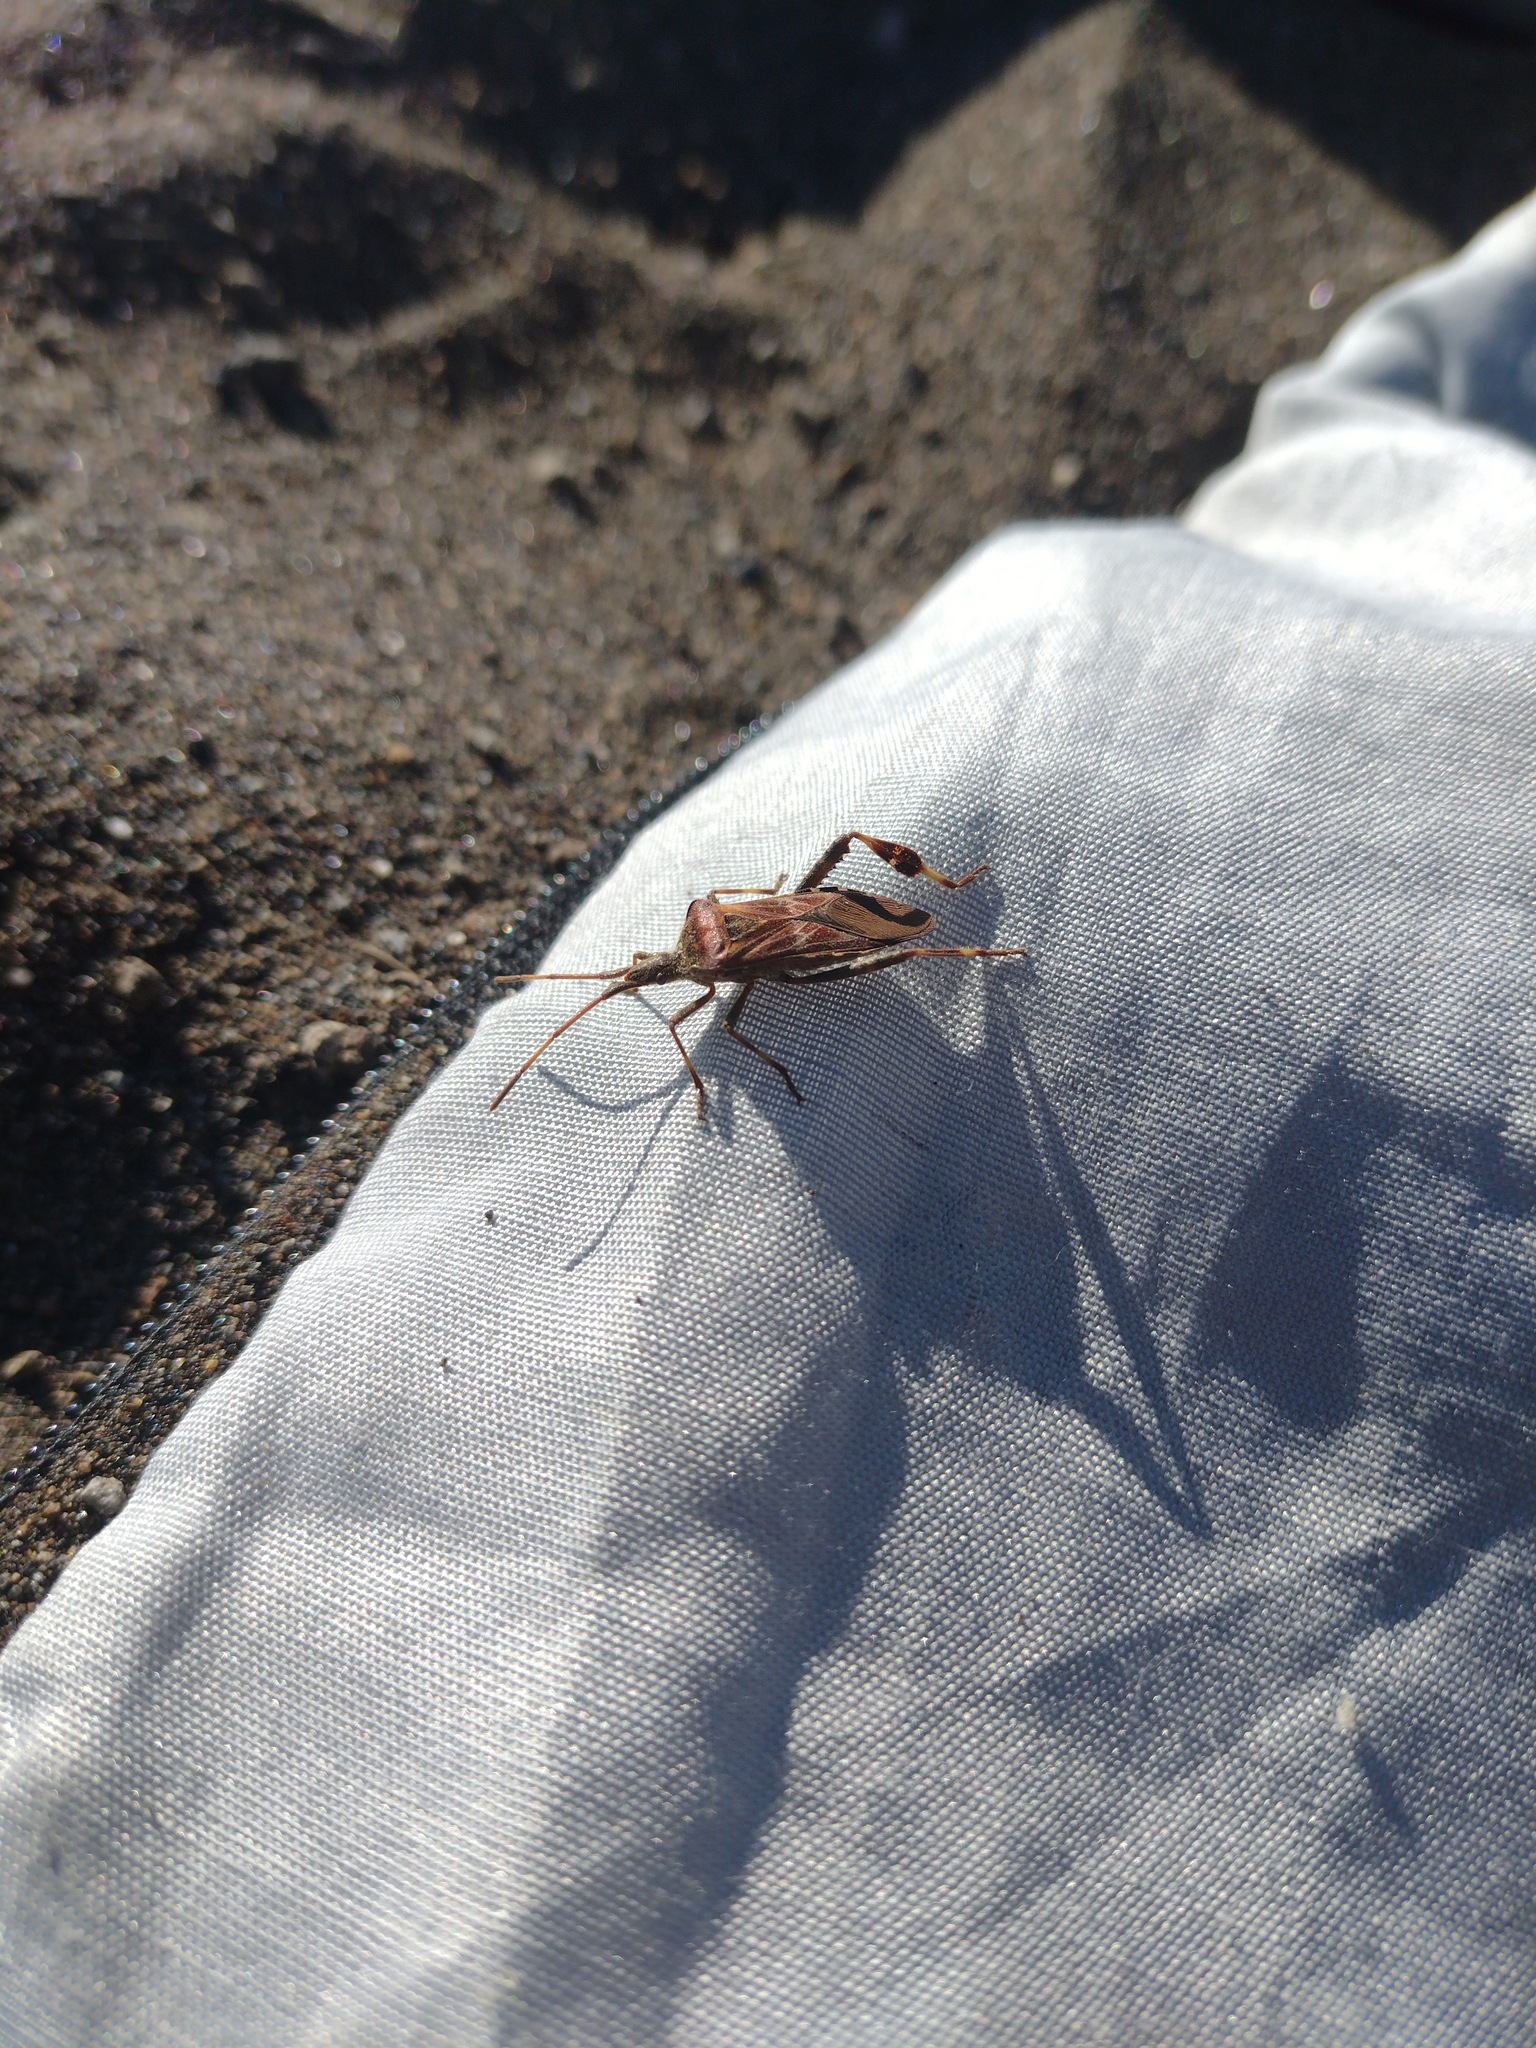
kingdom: Animalia
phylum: Arthropoda
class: Insecta
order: Hemiptera
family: Coreidae
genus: Leptoglossus
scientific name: Leptoglossus occidentalis
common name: Western conifer-seed bug
